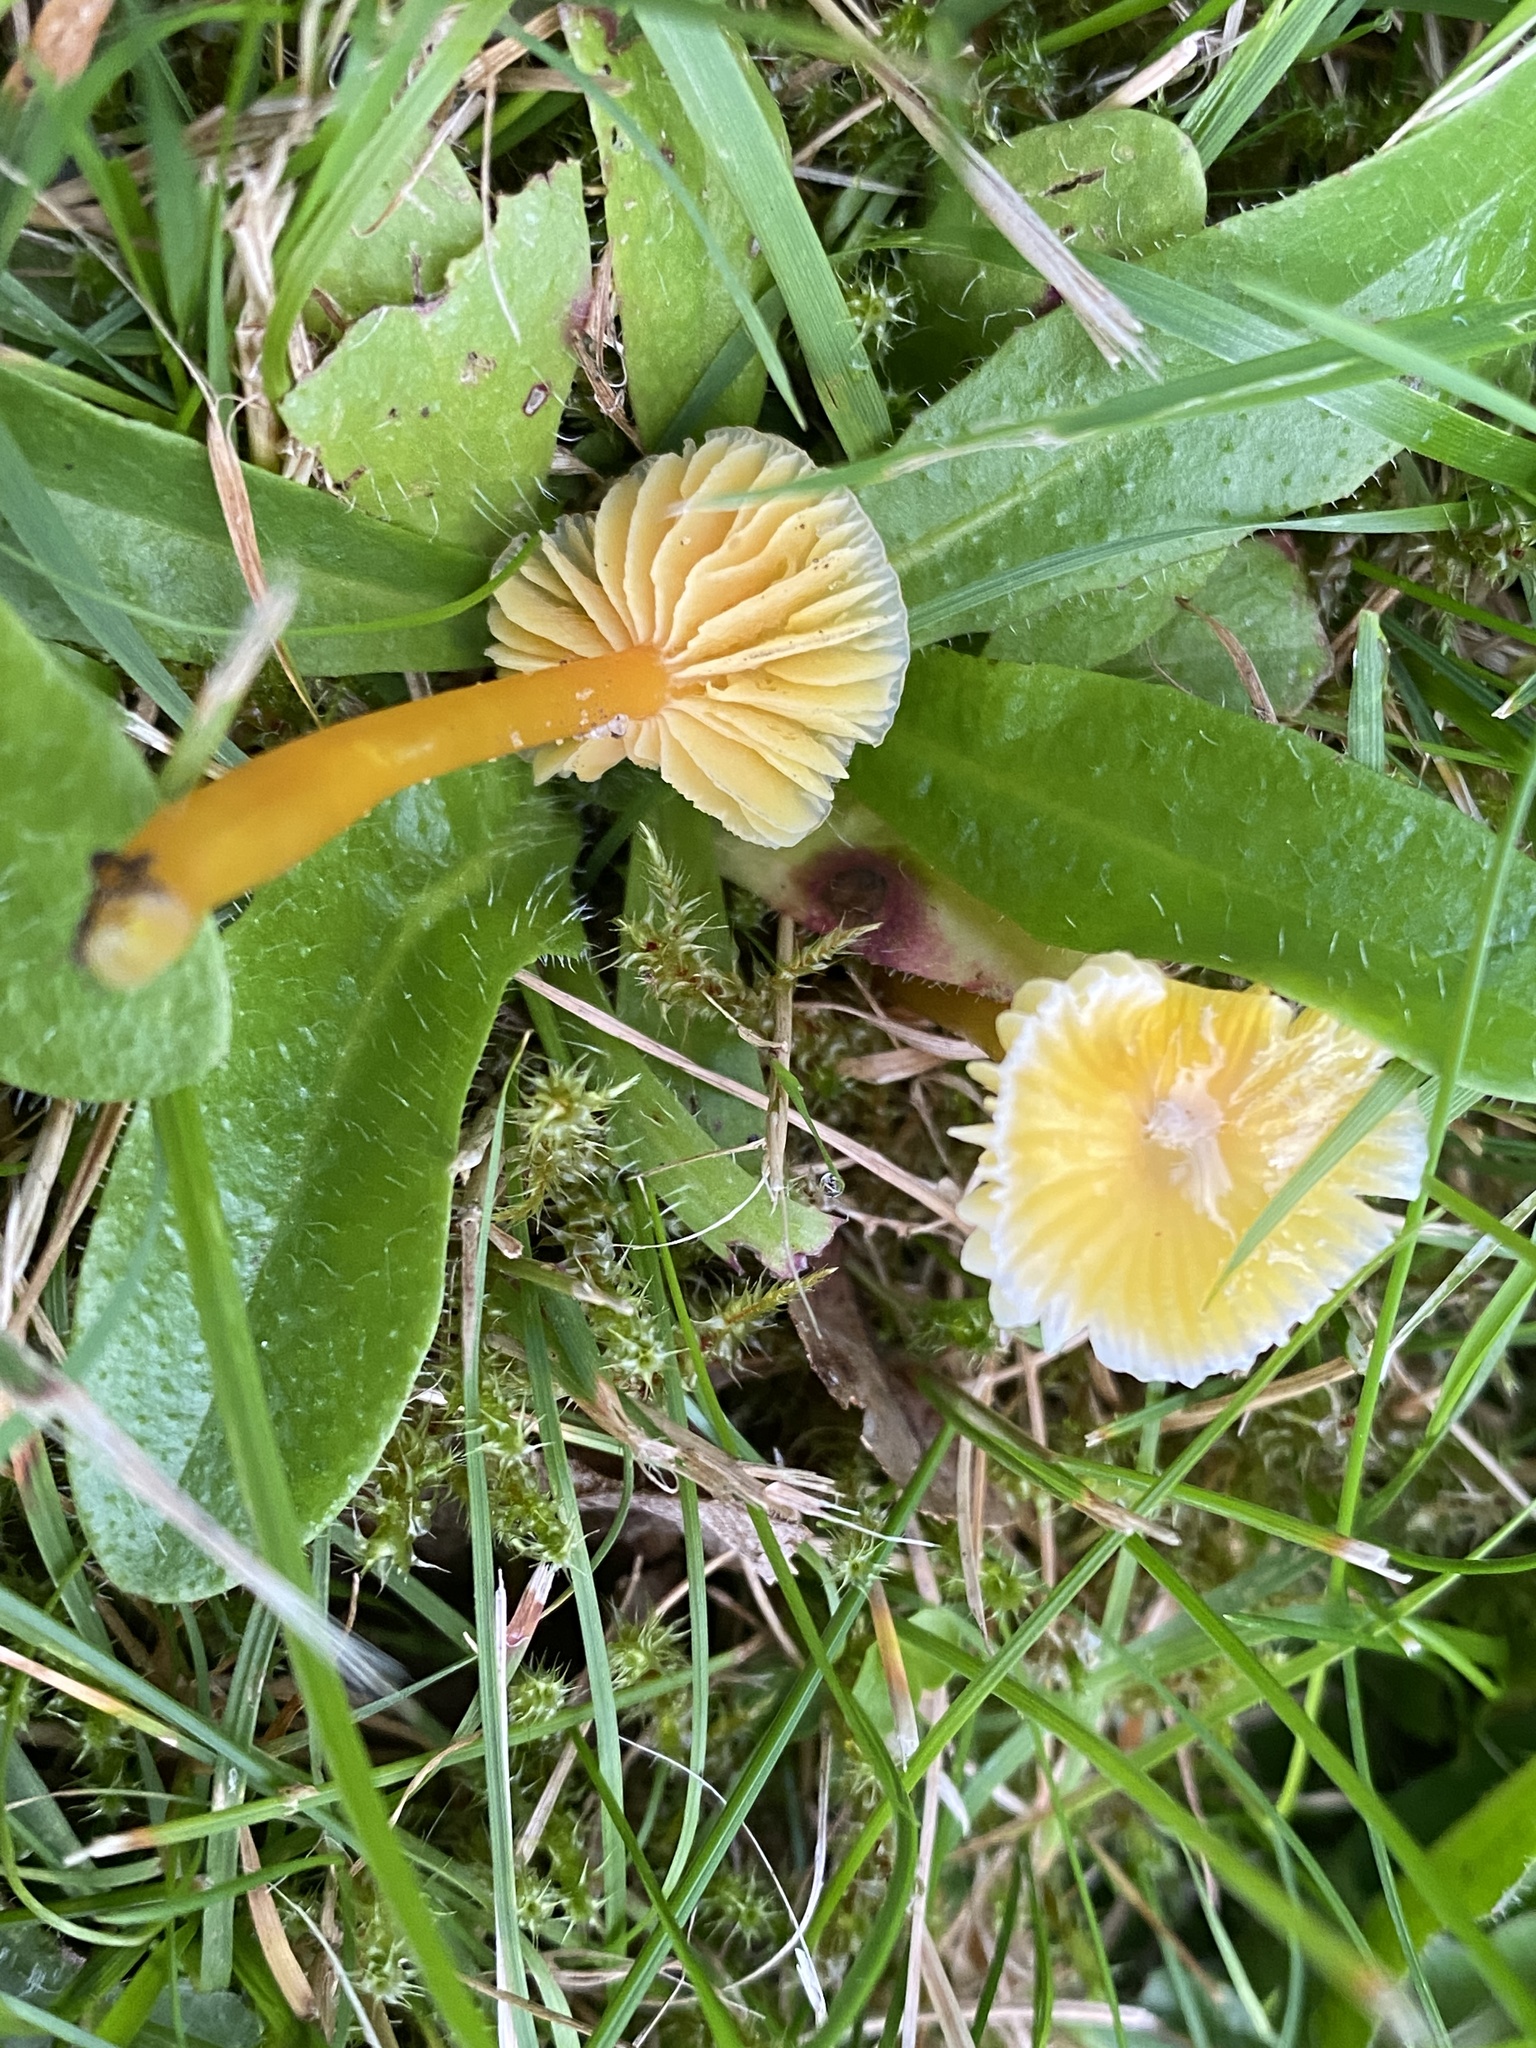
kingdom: Fungi
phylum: Basidiomycota
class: Agaricomycetes
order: Agaricales
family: Hygrophoraceae
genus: Hygrocybe
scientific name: Hygrocybe glutinipes
